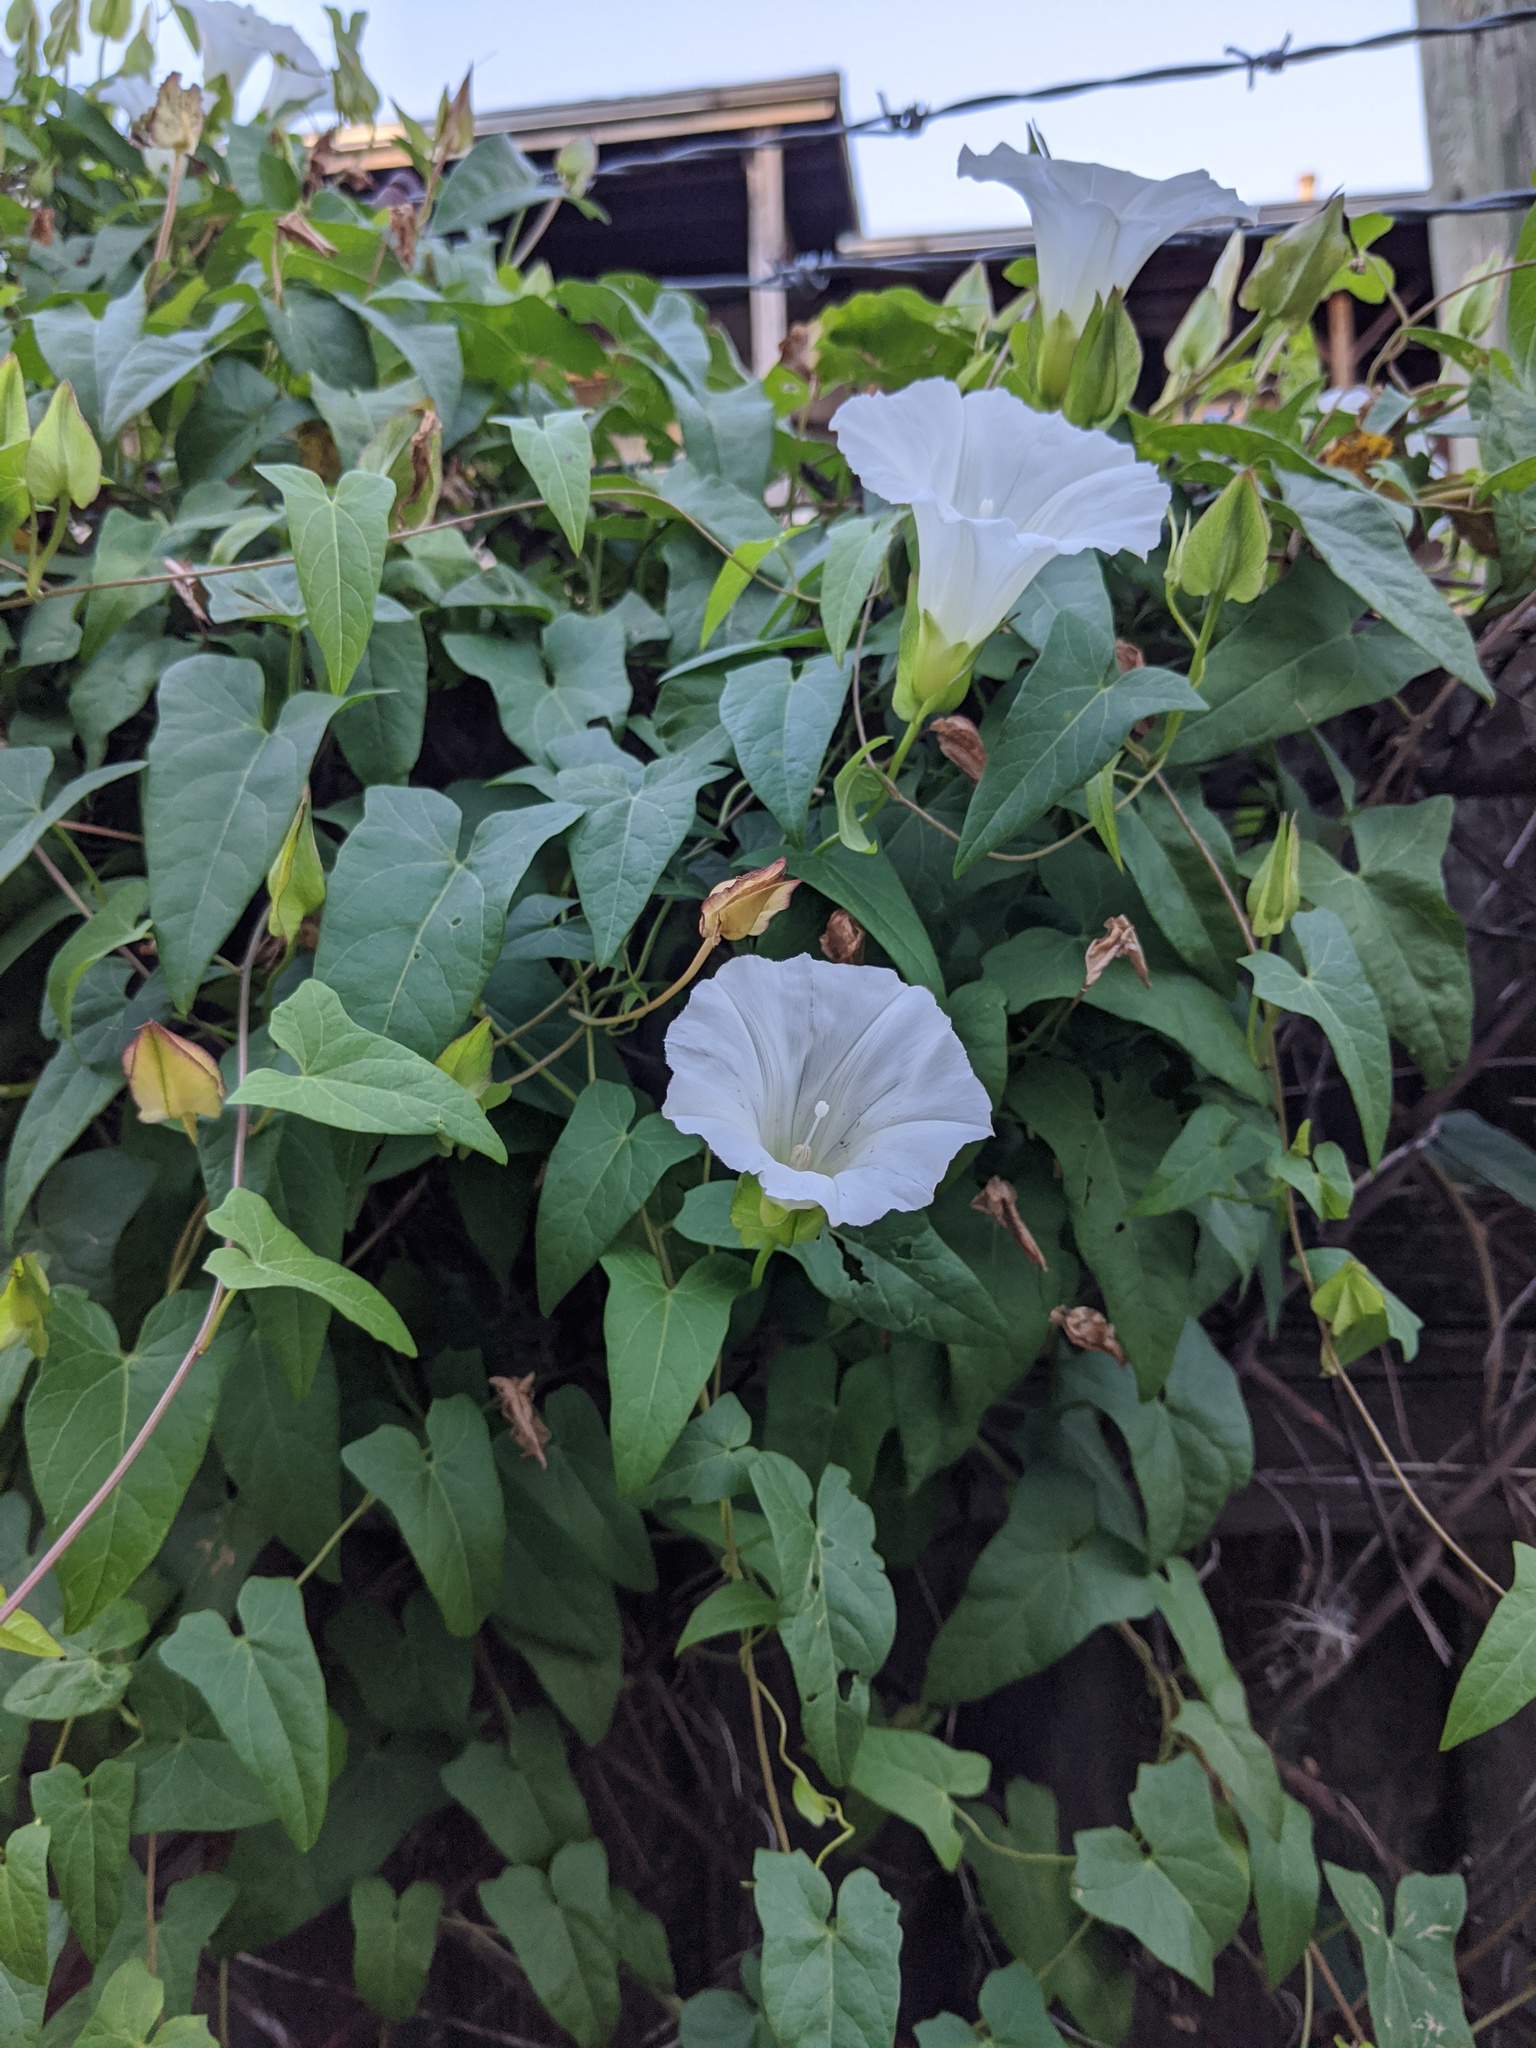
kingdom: Plantae
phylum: Tracheophyta
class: Magnoliopsida
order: Solanales
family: Convolvulaceae
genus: Calystegia
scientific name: Calystegia sepium
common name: Hedge bindweed
